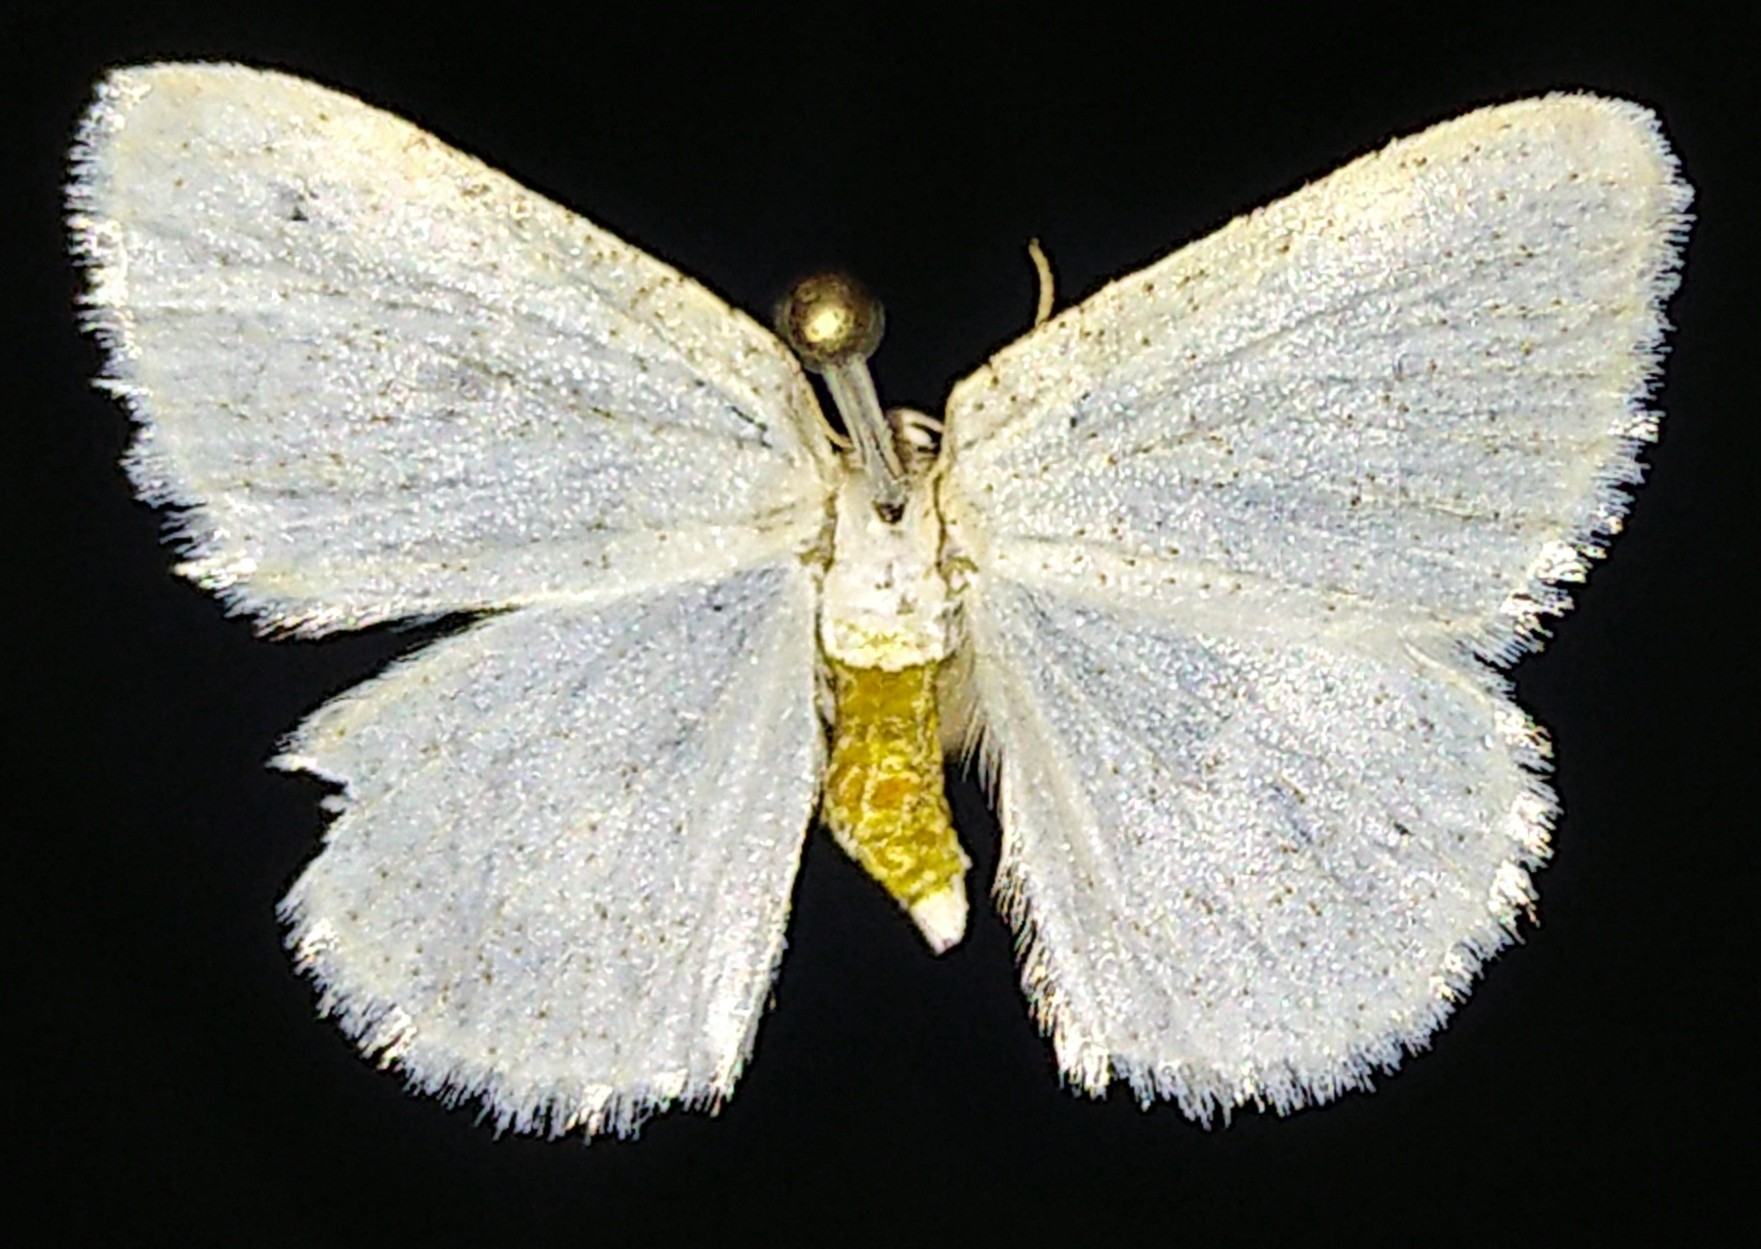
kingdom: Animalia
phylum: Arthropoda
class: Insecta
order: Lepidoptera
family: Geometridae
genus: Protitame
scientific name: Protitame virginalis
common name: Virgin moth
